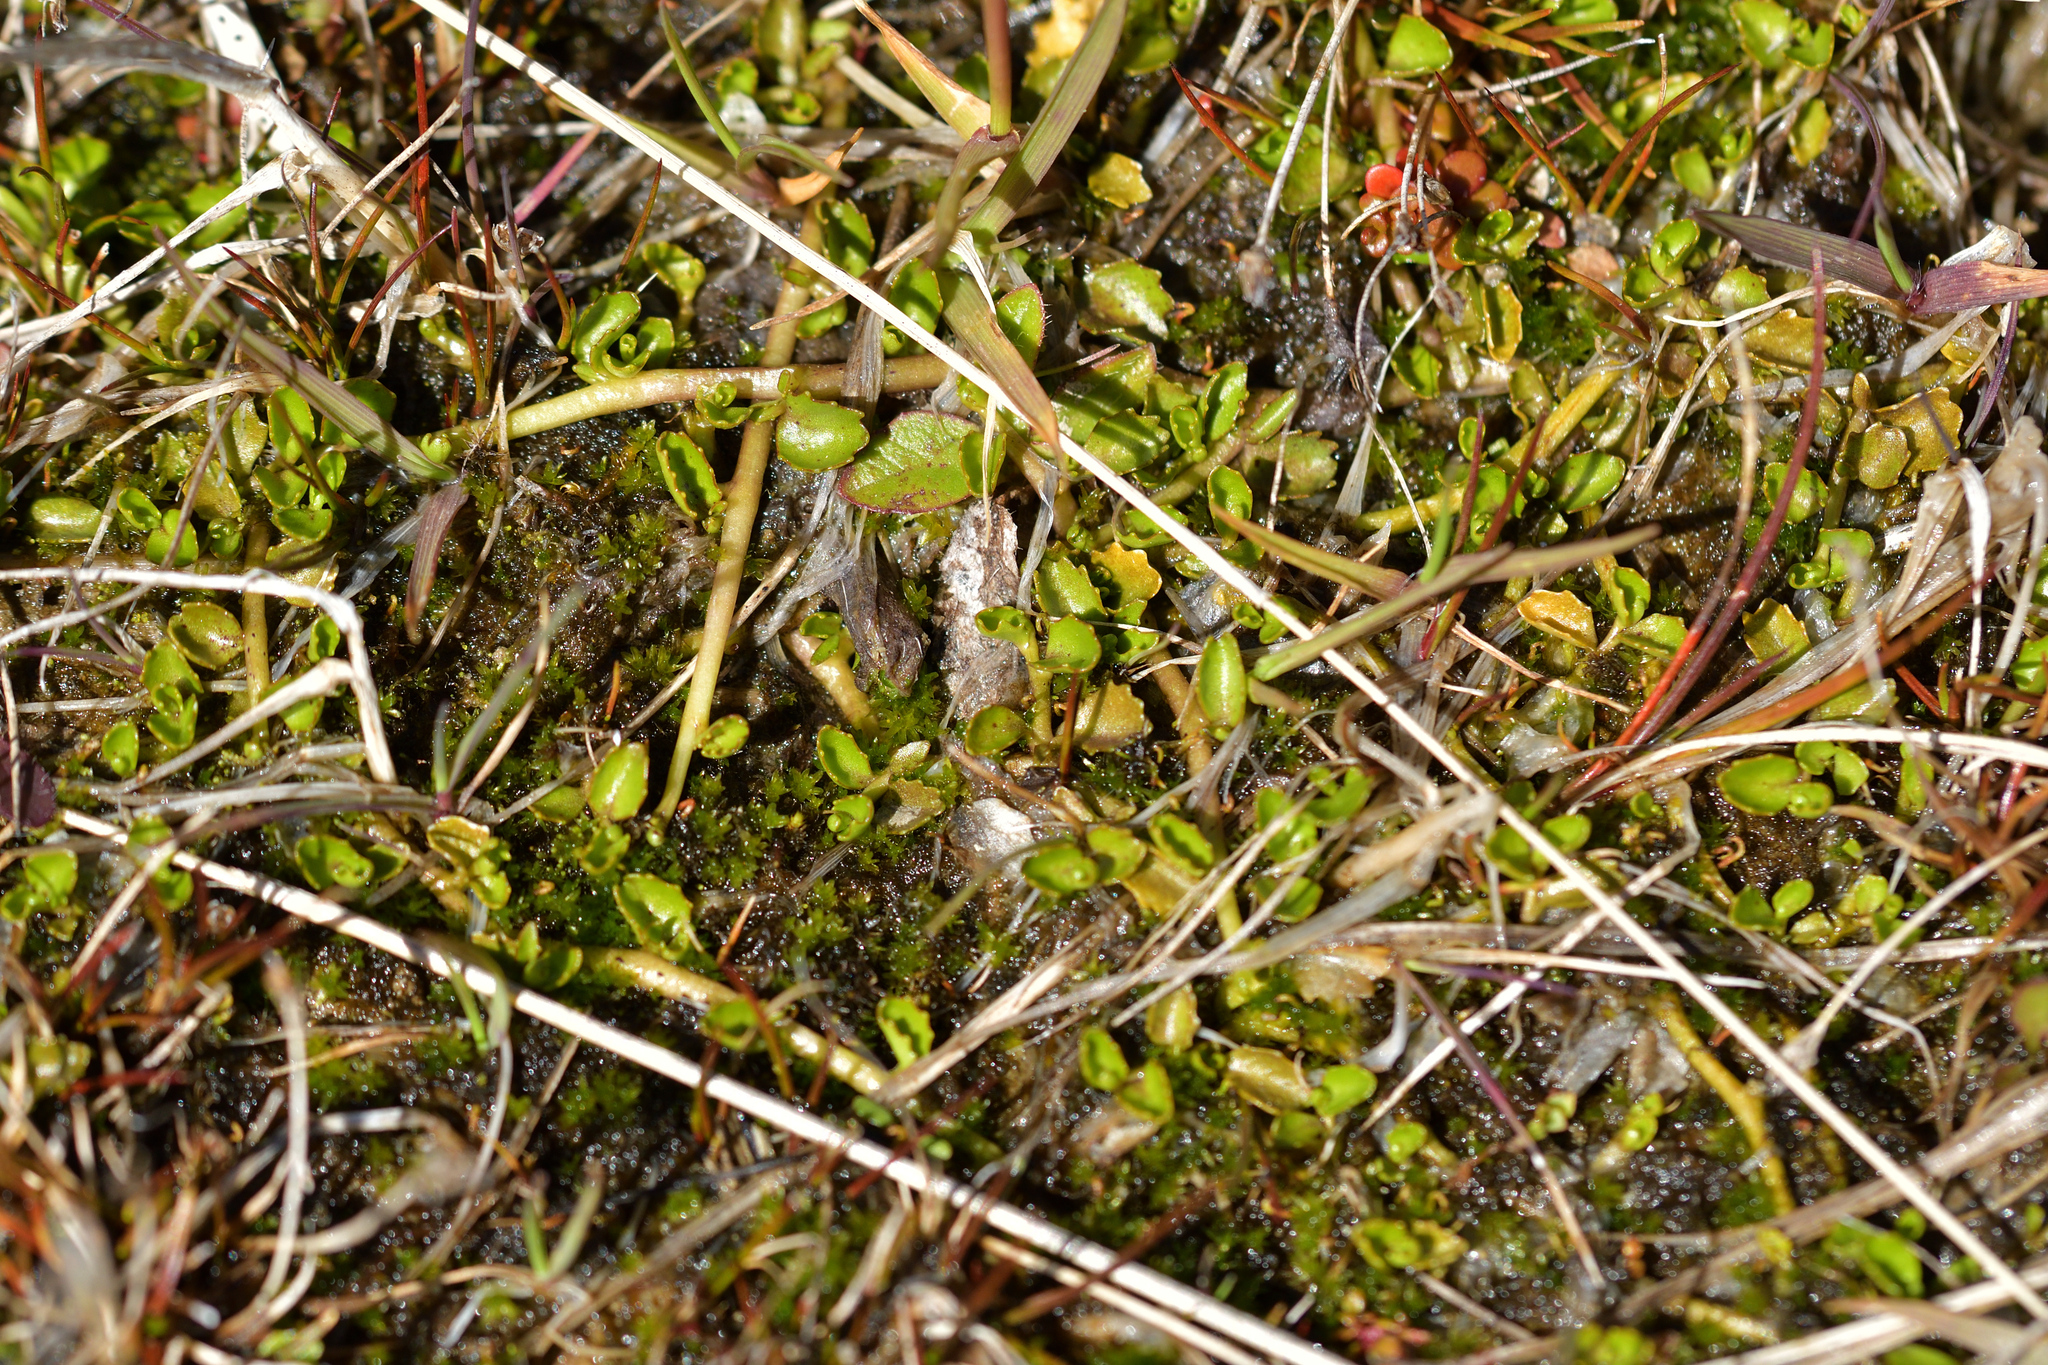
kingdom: Plantae
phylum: Tracheophyta
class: Magnoliopsida
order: Asterales
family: Campanulaceae
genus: Lobelia
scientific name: Lobelia angulata
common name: Lawn lobelia
